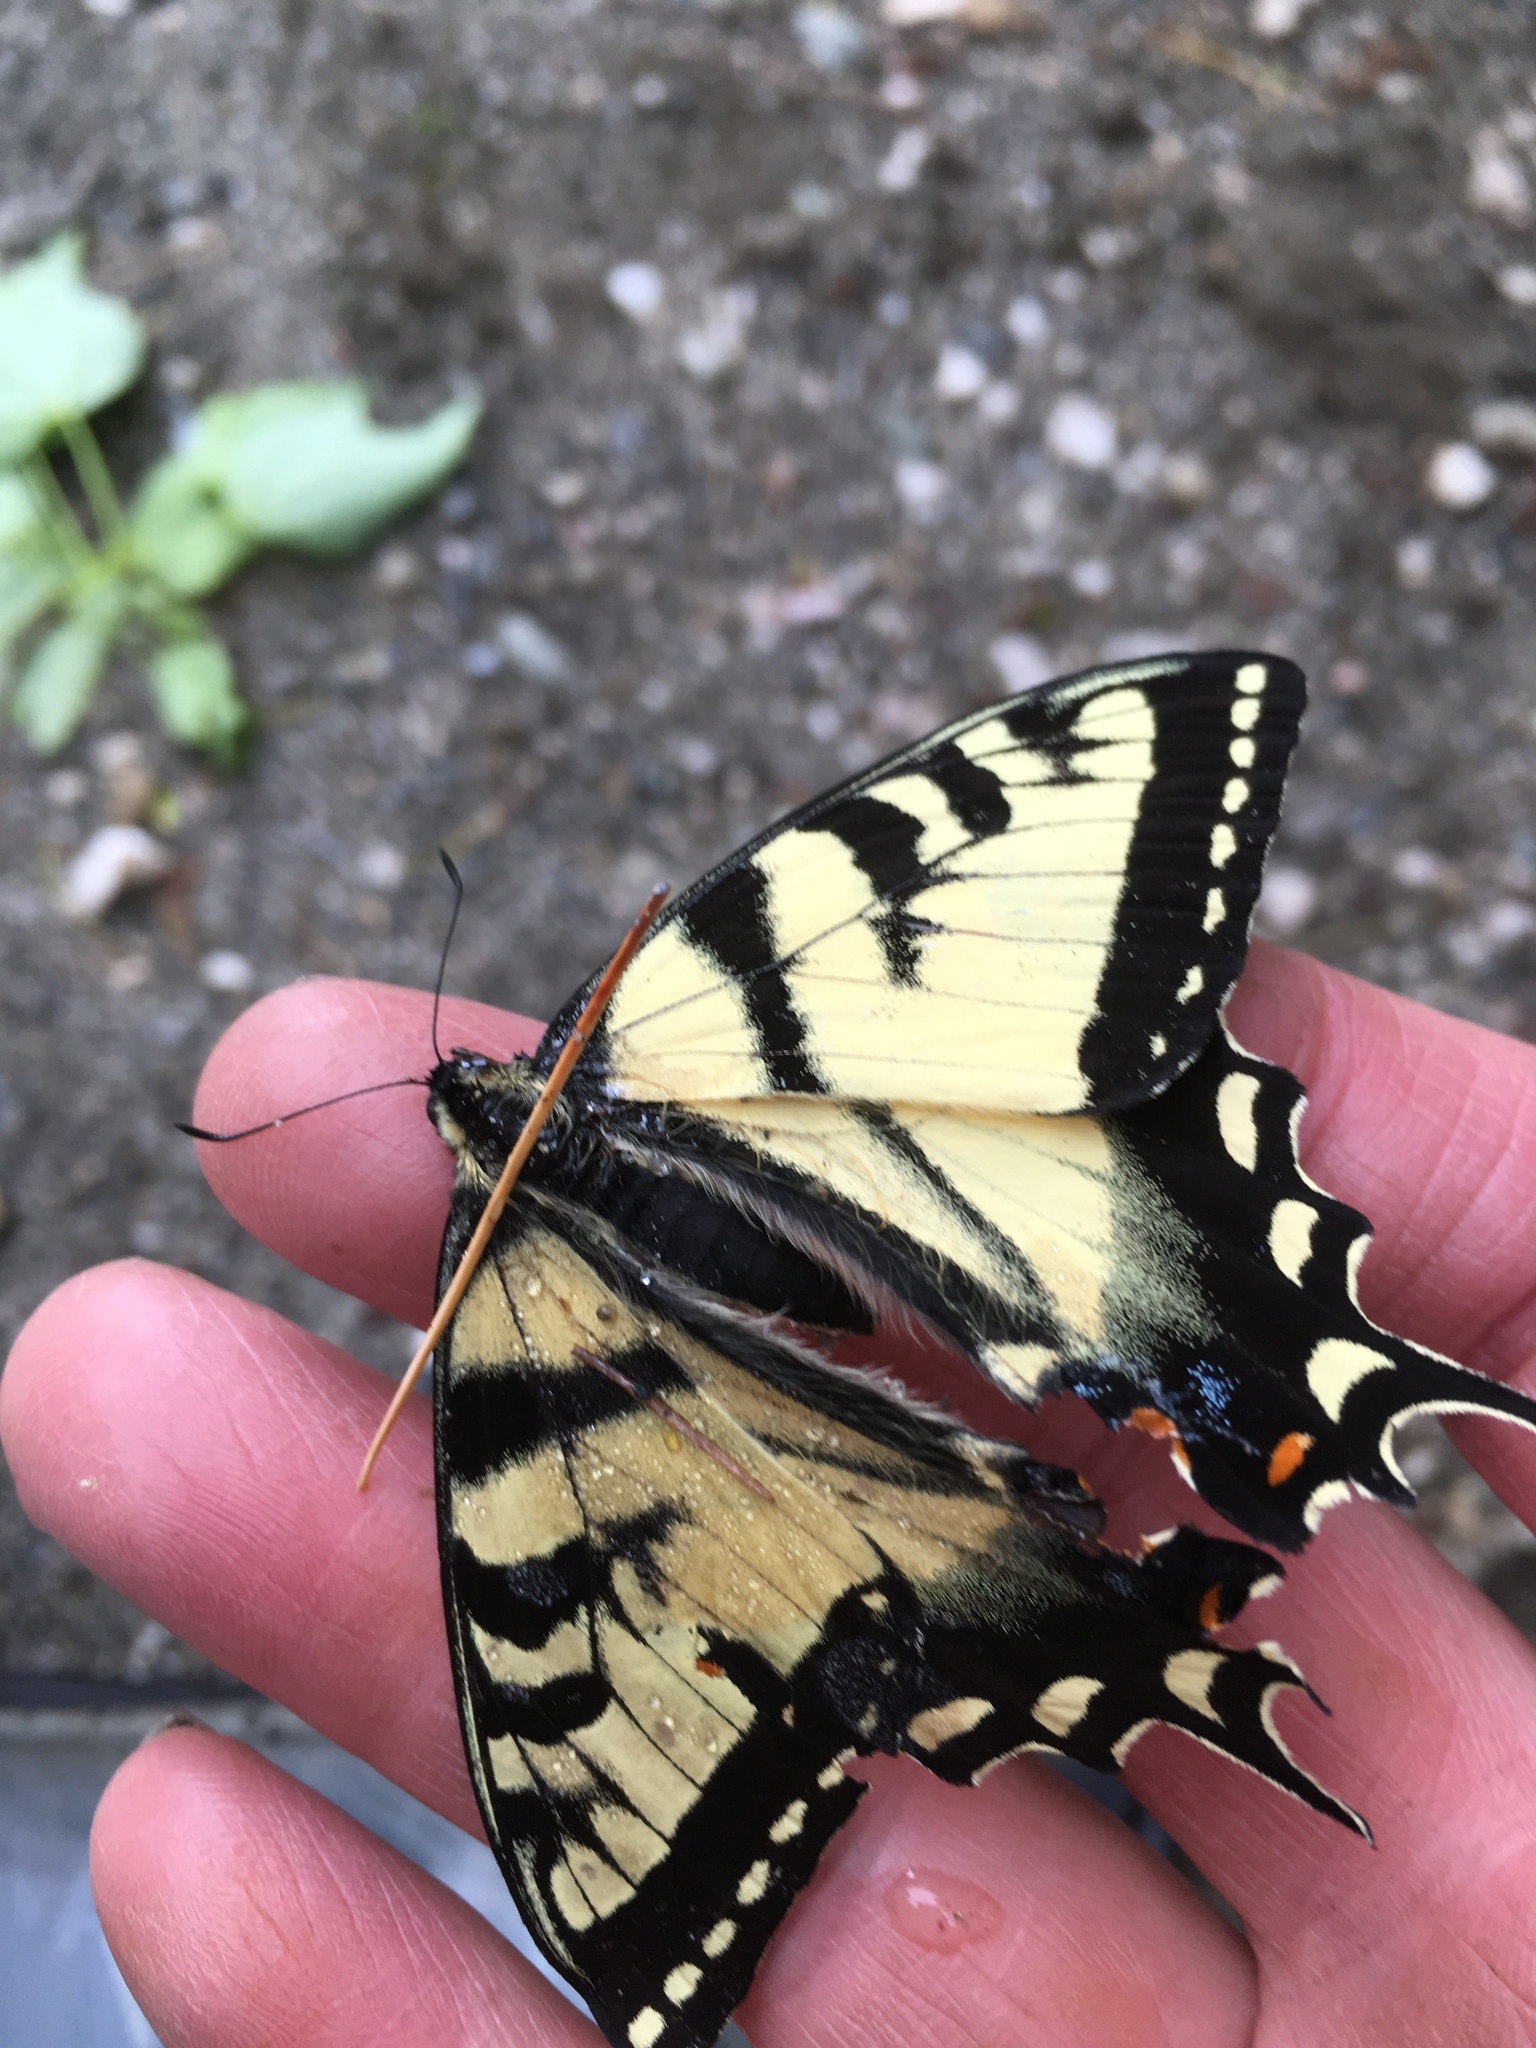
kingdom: Animalia
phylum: Arthropoda
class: Insecta
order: Lepidoptera
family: Papilionidae
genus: Papilio
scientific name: Papilio canadensis
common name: Canadian tiger swallowtail
